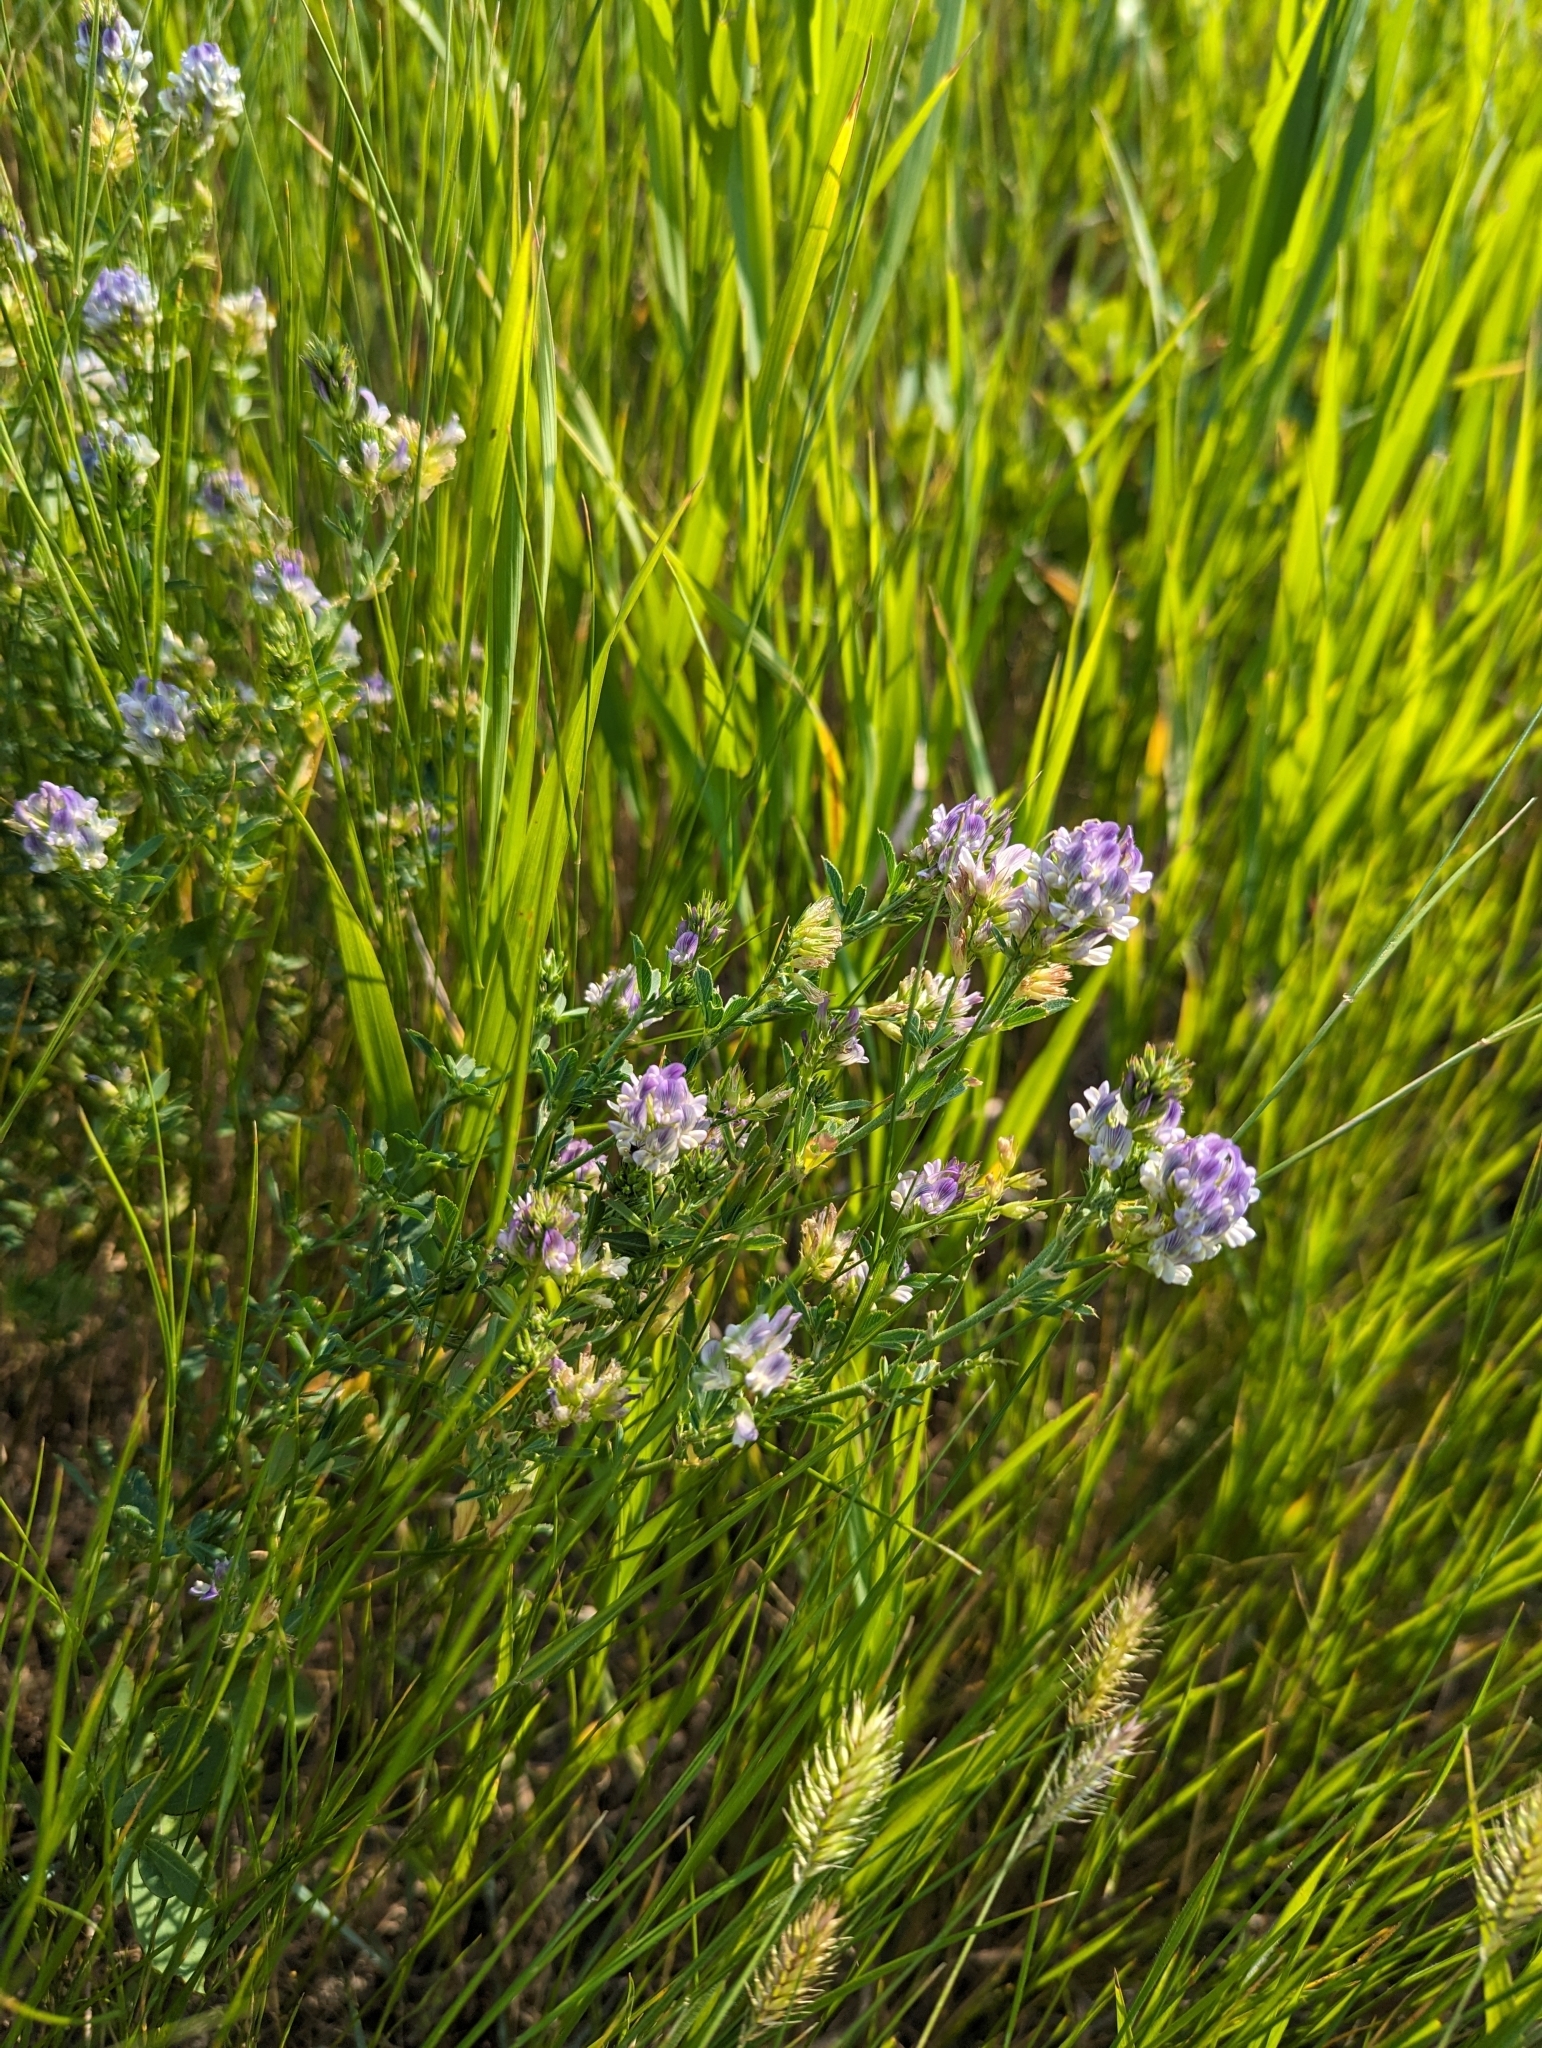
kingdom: Plantae
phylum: Tracheophyta
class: Magnoliopsida
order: Fabales
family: Fabaceae
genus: Medicago
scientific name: Medicago sativa
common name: Alfalfa
